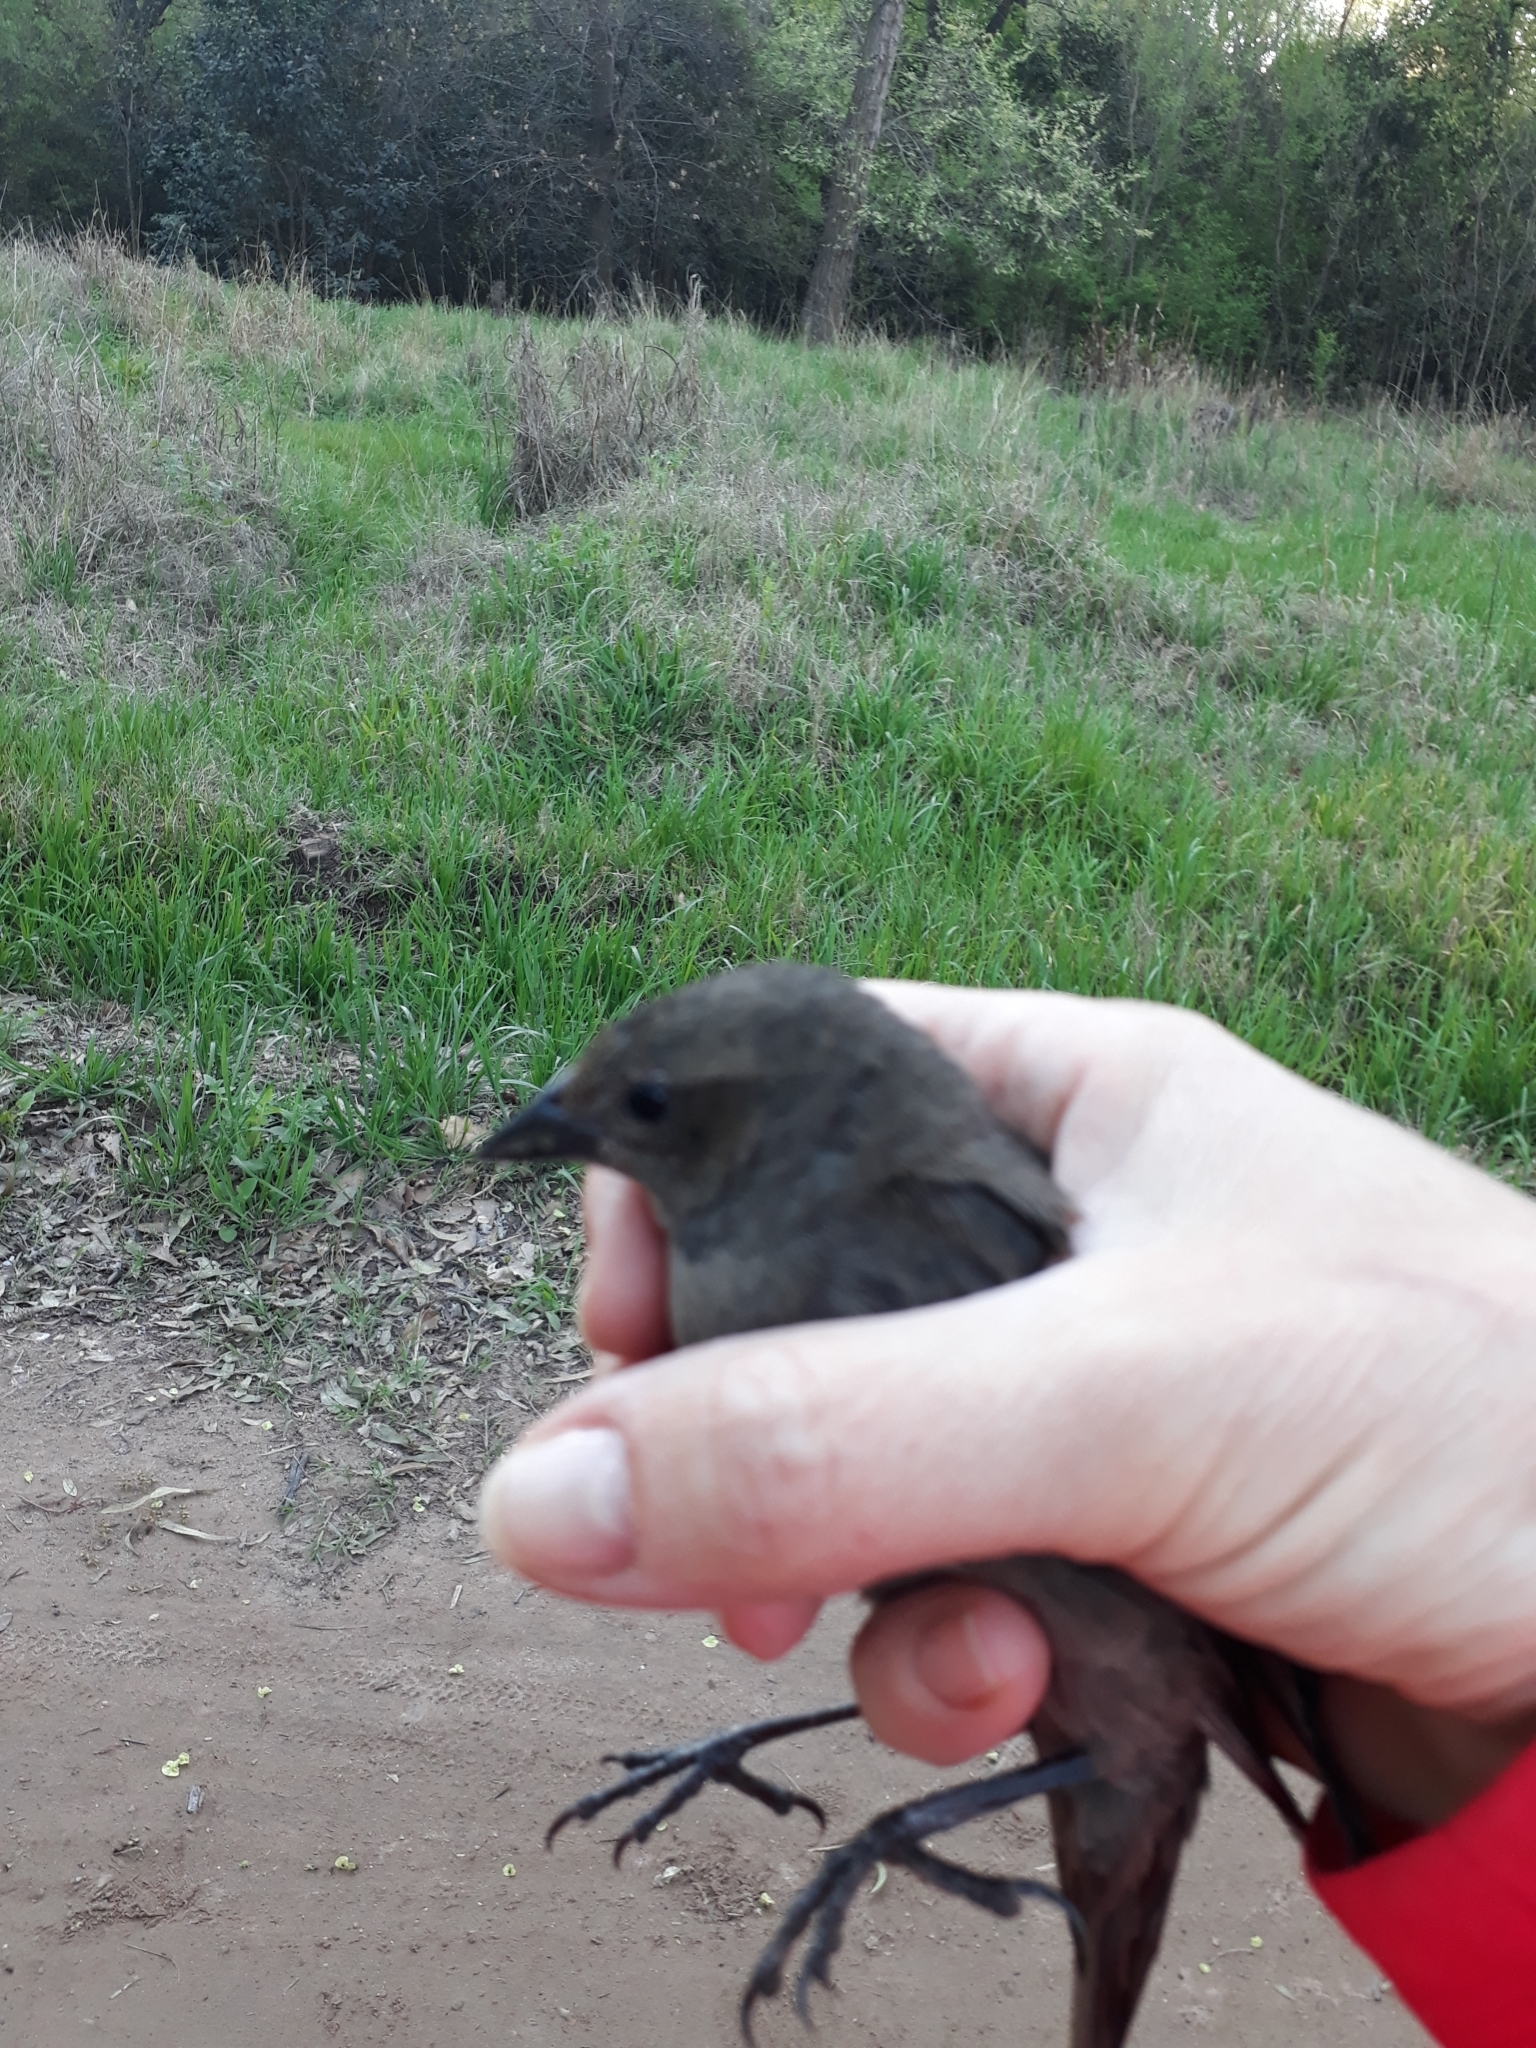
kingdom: Animalia
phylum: Chordata
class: Aves
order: Passeriformes
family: Icteridae
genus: Molothrus
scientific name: Molothrus bonariensis
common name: Shiny cowbird
